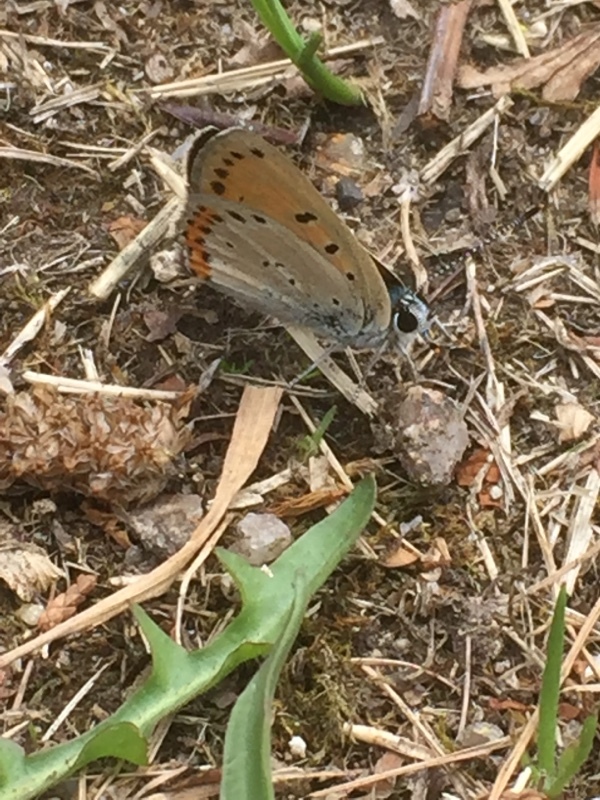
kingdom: Animalia
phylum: Arthropoda
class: Insecta
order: Lepidoptera
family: Lycaenidae
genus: Lycaena
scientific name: Lycaena alciphron
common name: Purple-shot copper
